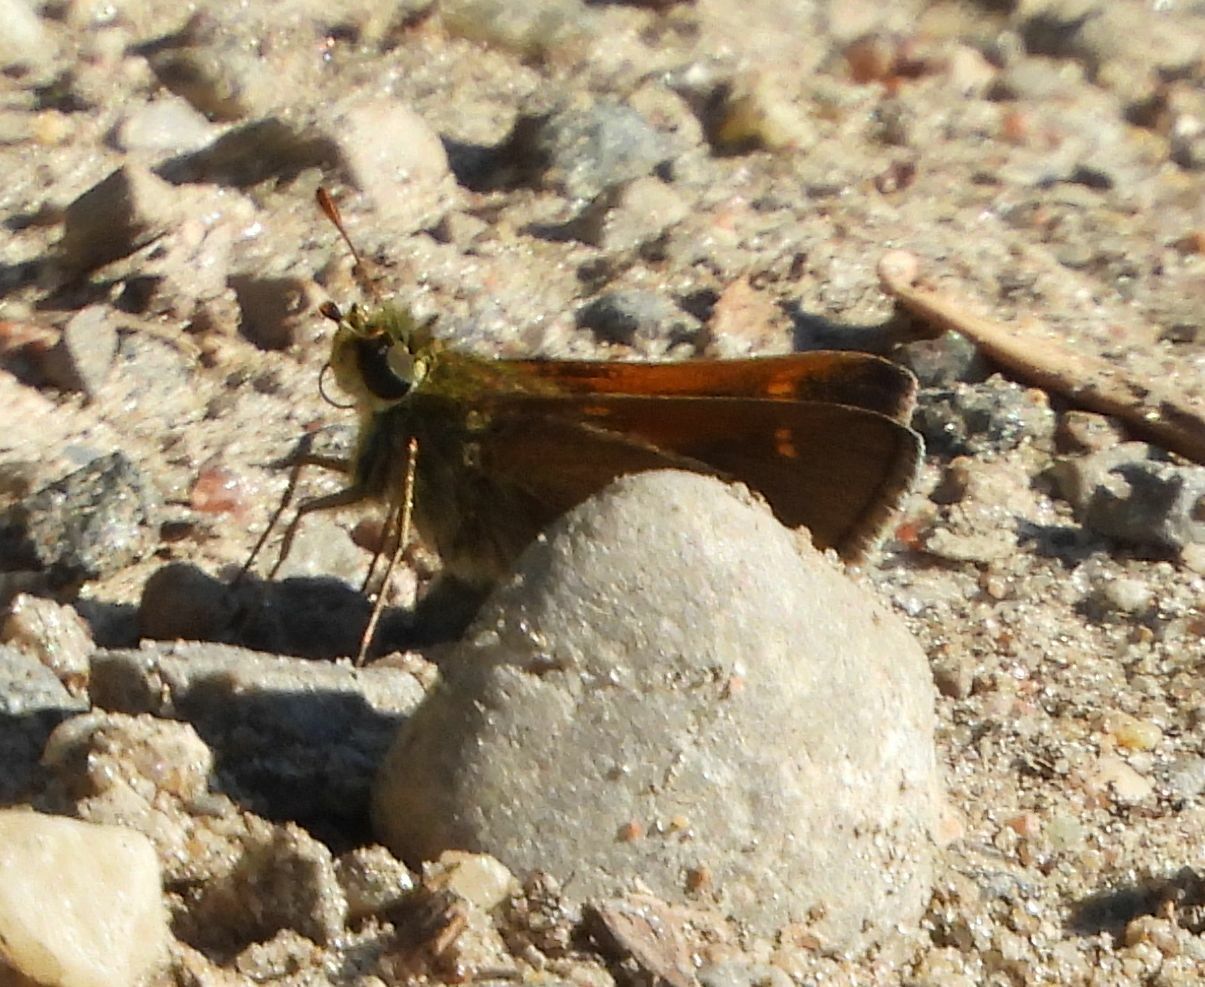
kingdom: Animalia
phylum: Arthropoda
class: Insecta
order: Lepidoptera
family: Hesperiidae
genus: Polites
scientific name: Polites themistocles
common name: Tawny-edged skipper
